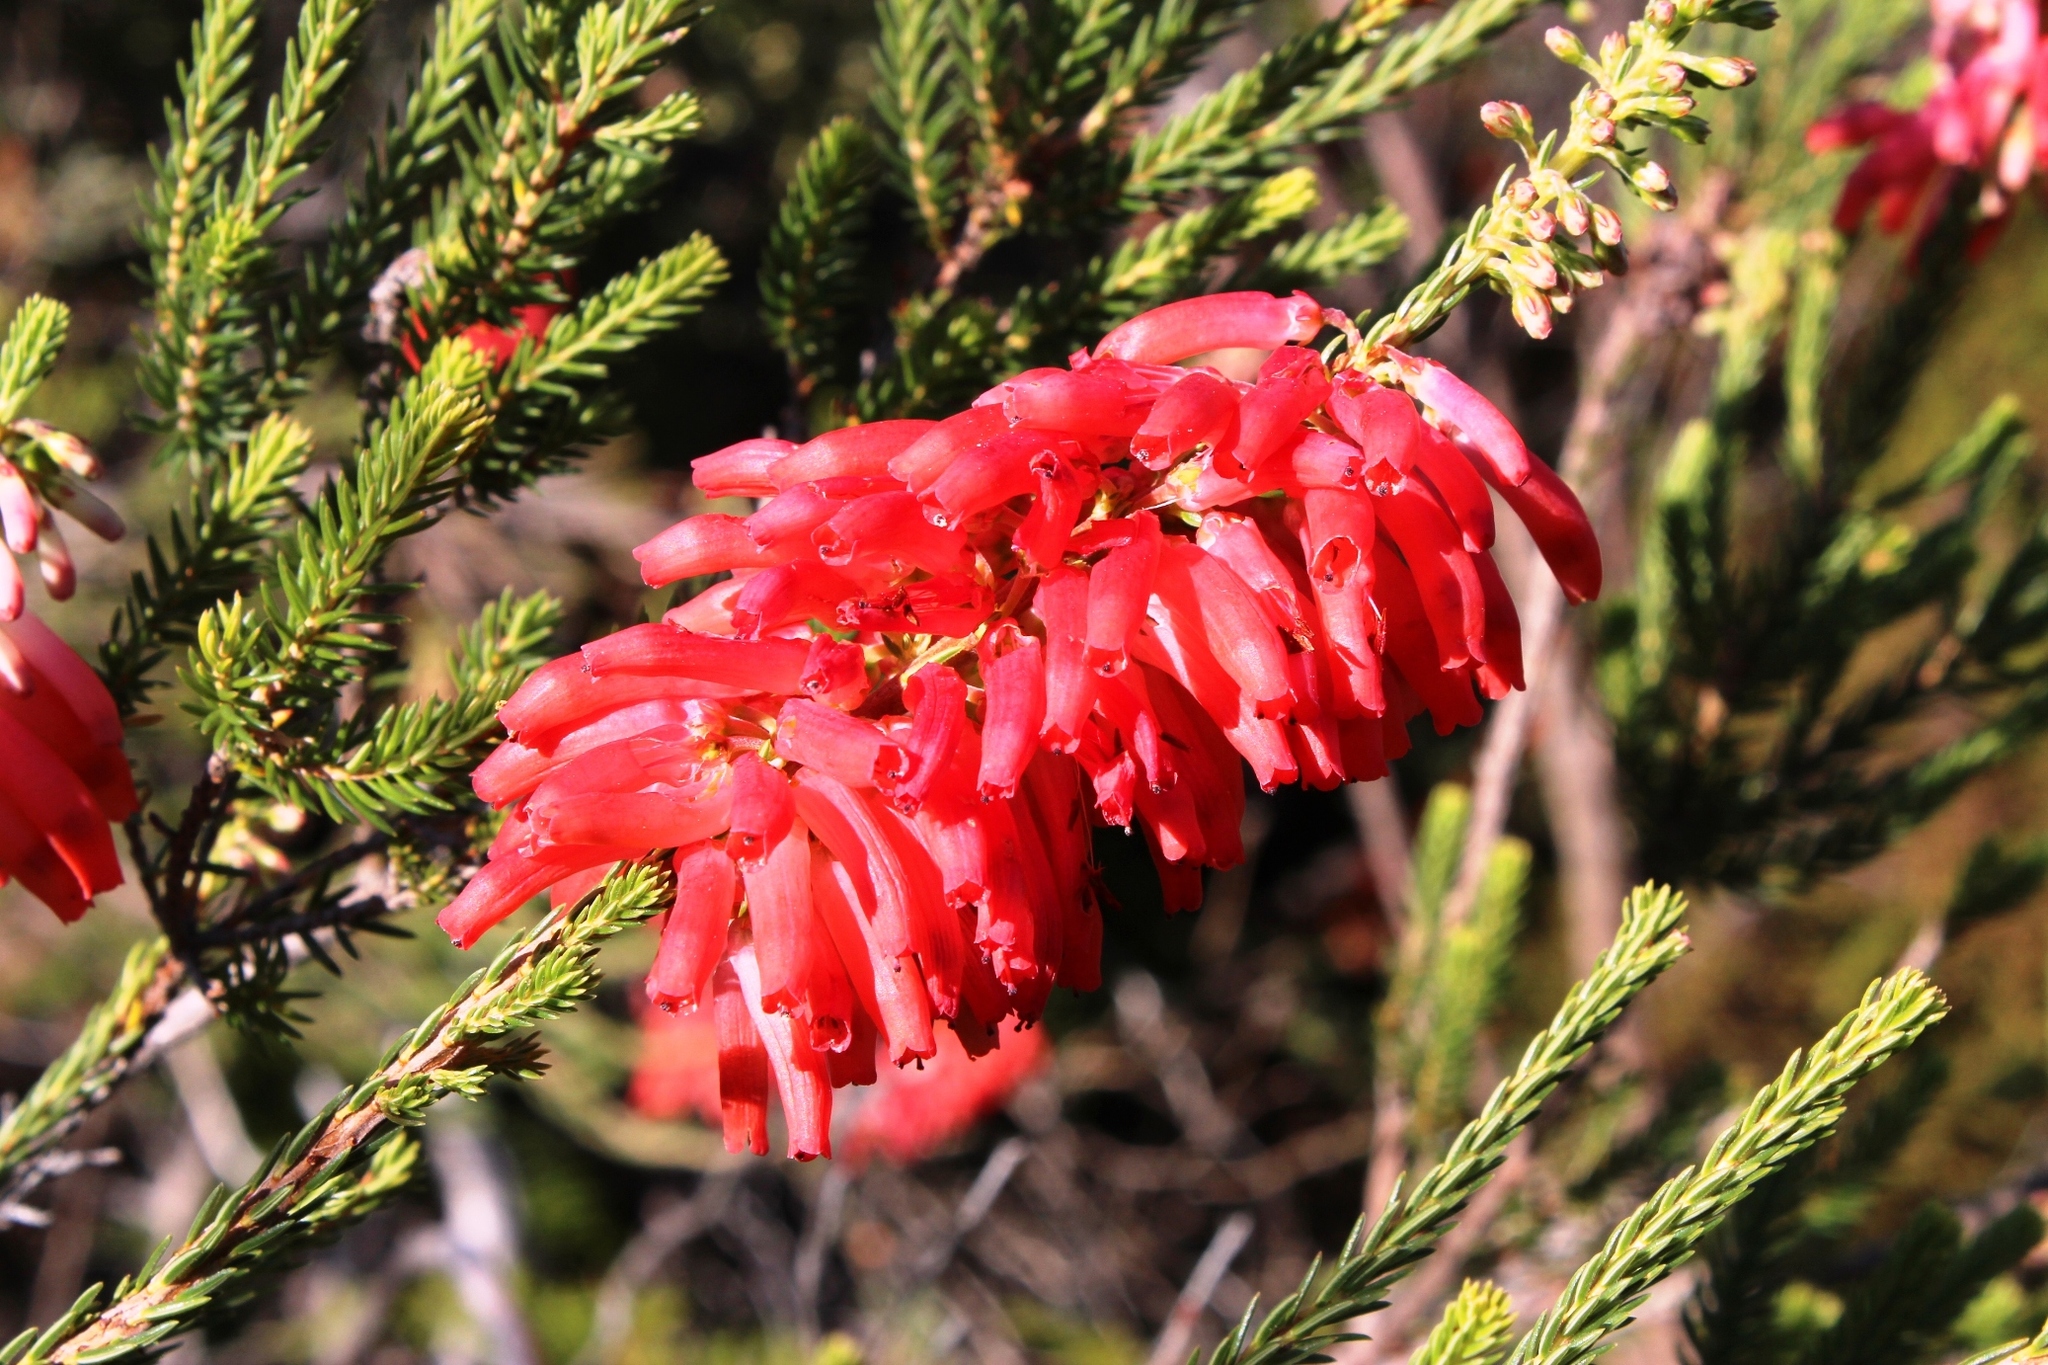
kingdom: Plantae
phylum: Tracheophyta
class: Magnoliopsida
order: Ericales
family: Ericaceae
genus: Erica
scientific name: Erica mammosa
